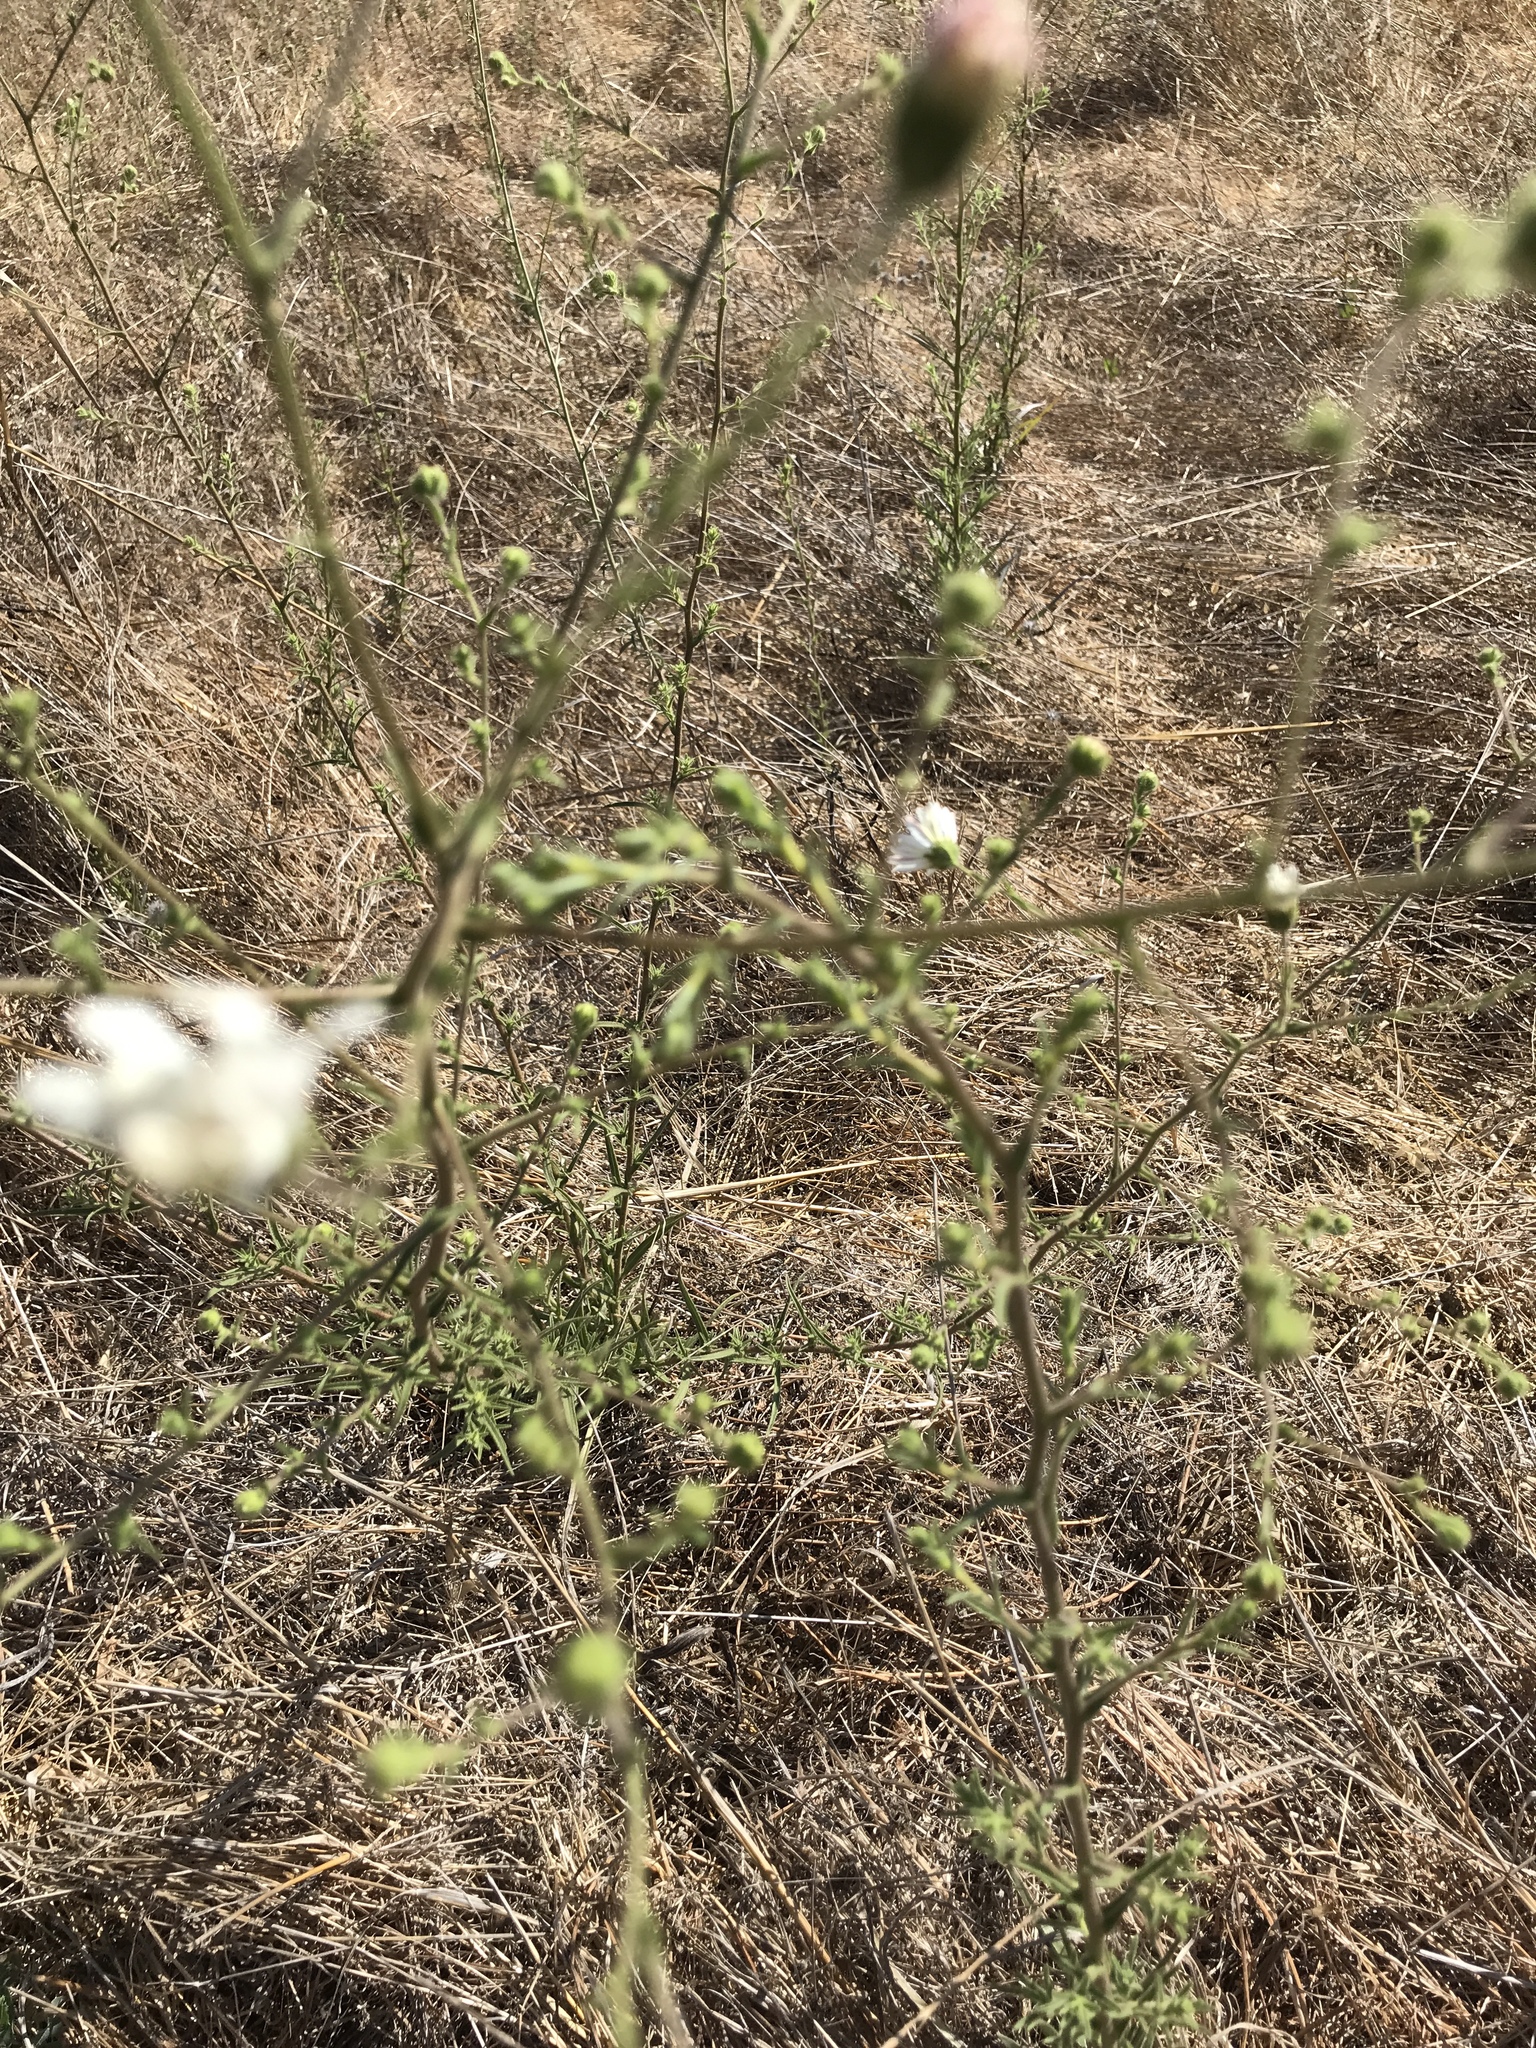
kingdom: Plantae
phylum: Tracheophyta
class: Magnoliopsida
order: Asterales
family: Asteraceae
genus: Hemizonia
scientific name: Hemizonia congesta
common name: Hayfield tarweed
